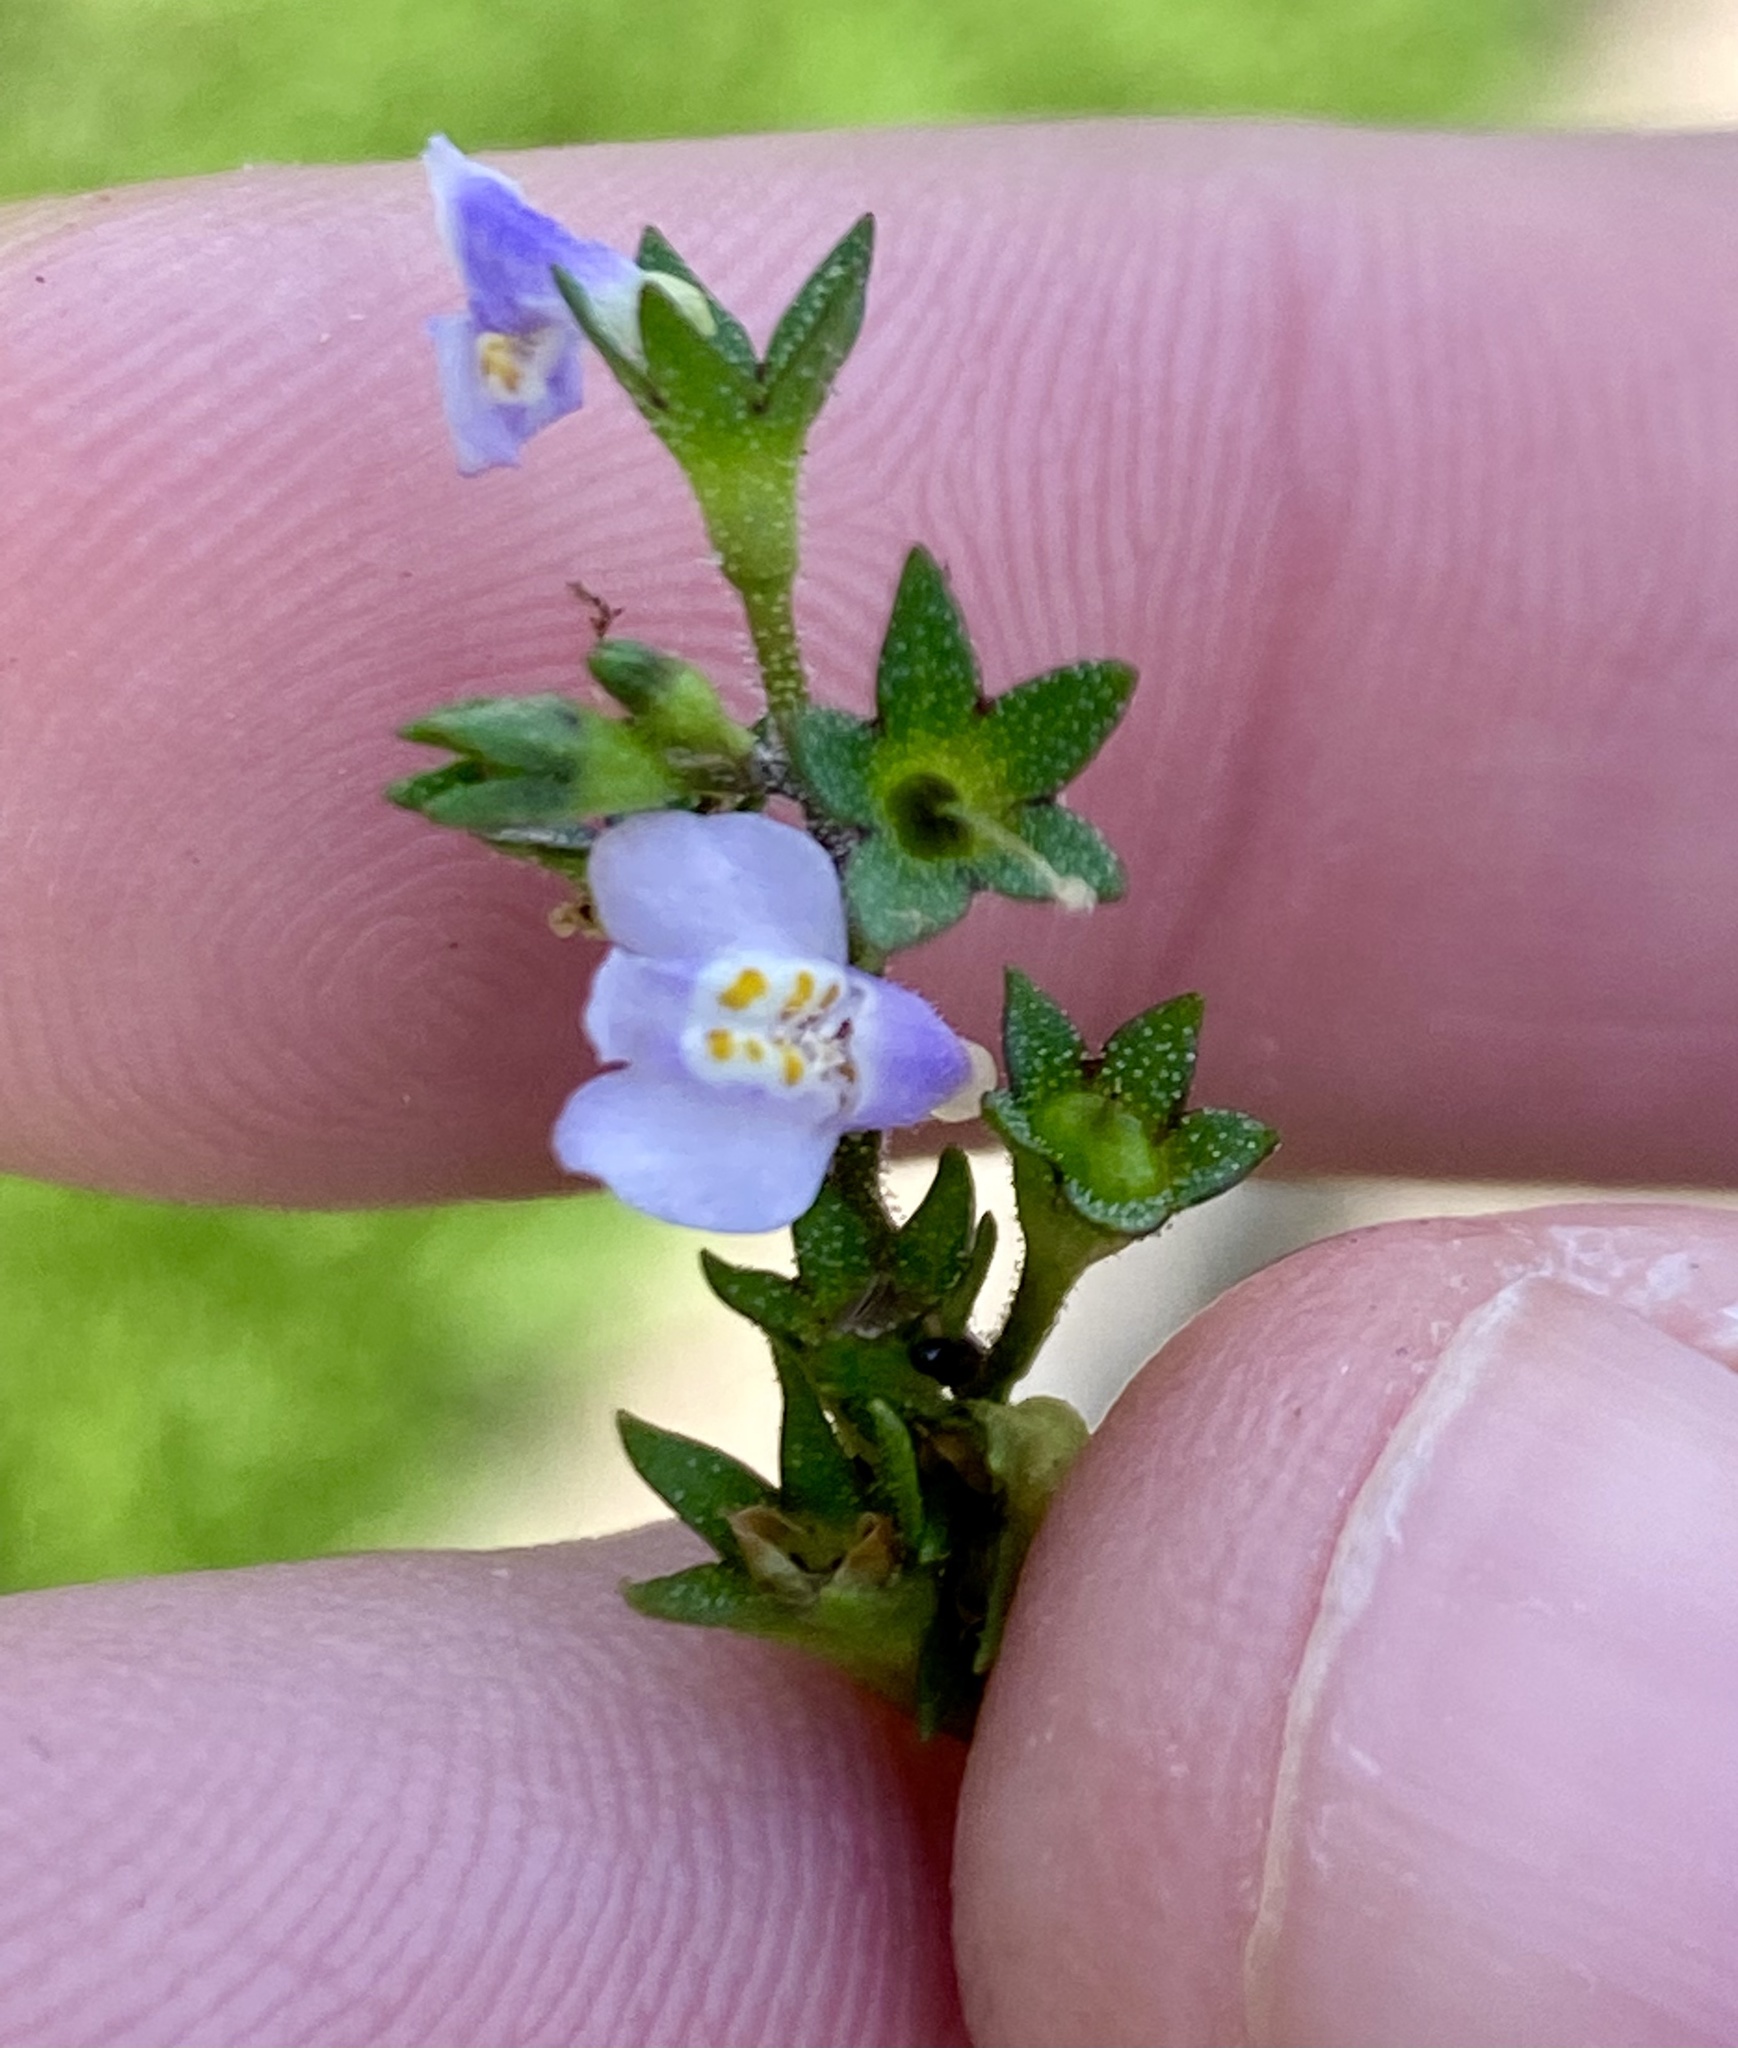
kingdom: Plantae
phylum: Tracheophyta
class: Magnoliopsida
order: Lamiales
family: Mazaceae
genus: Mazus
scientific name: Mazus pumilus
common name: Japanese mazus
